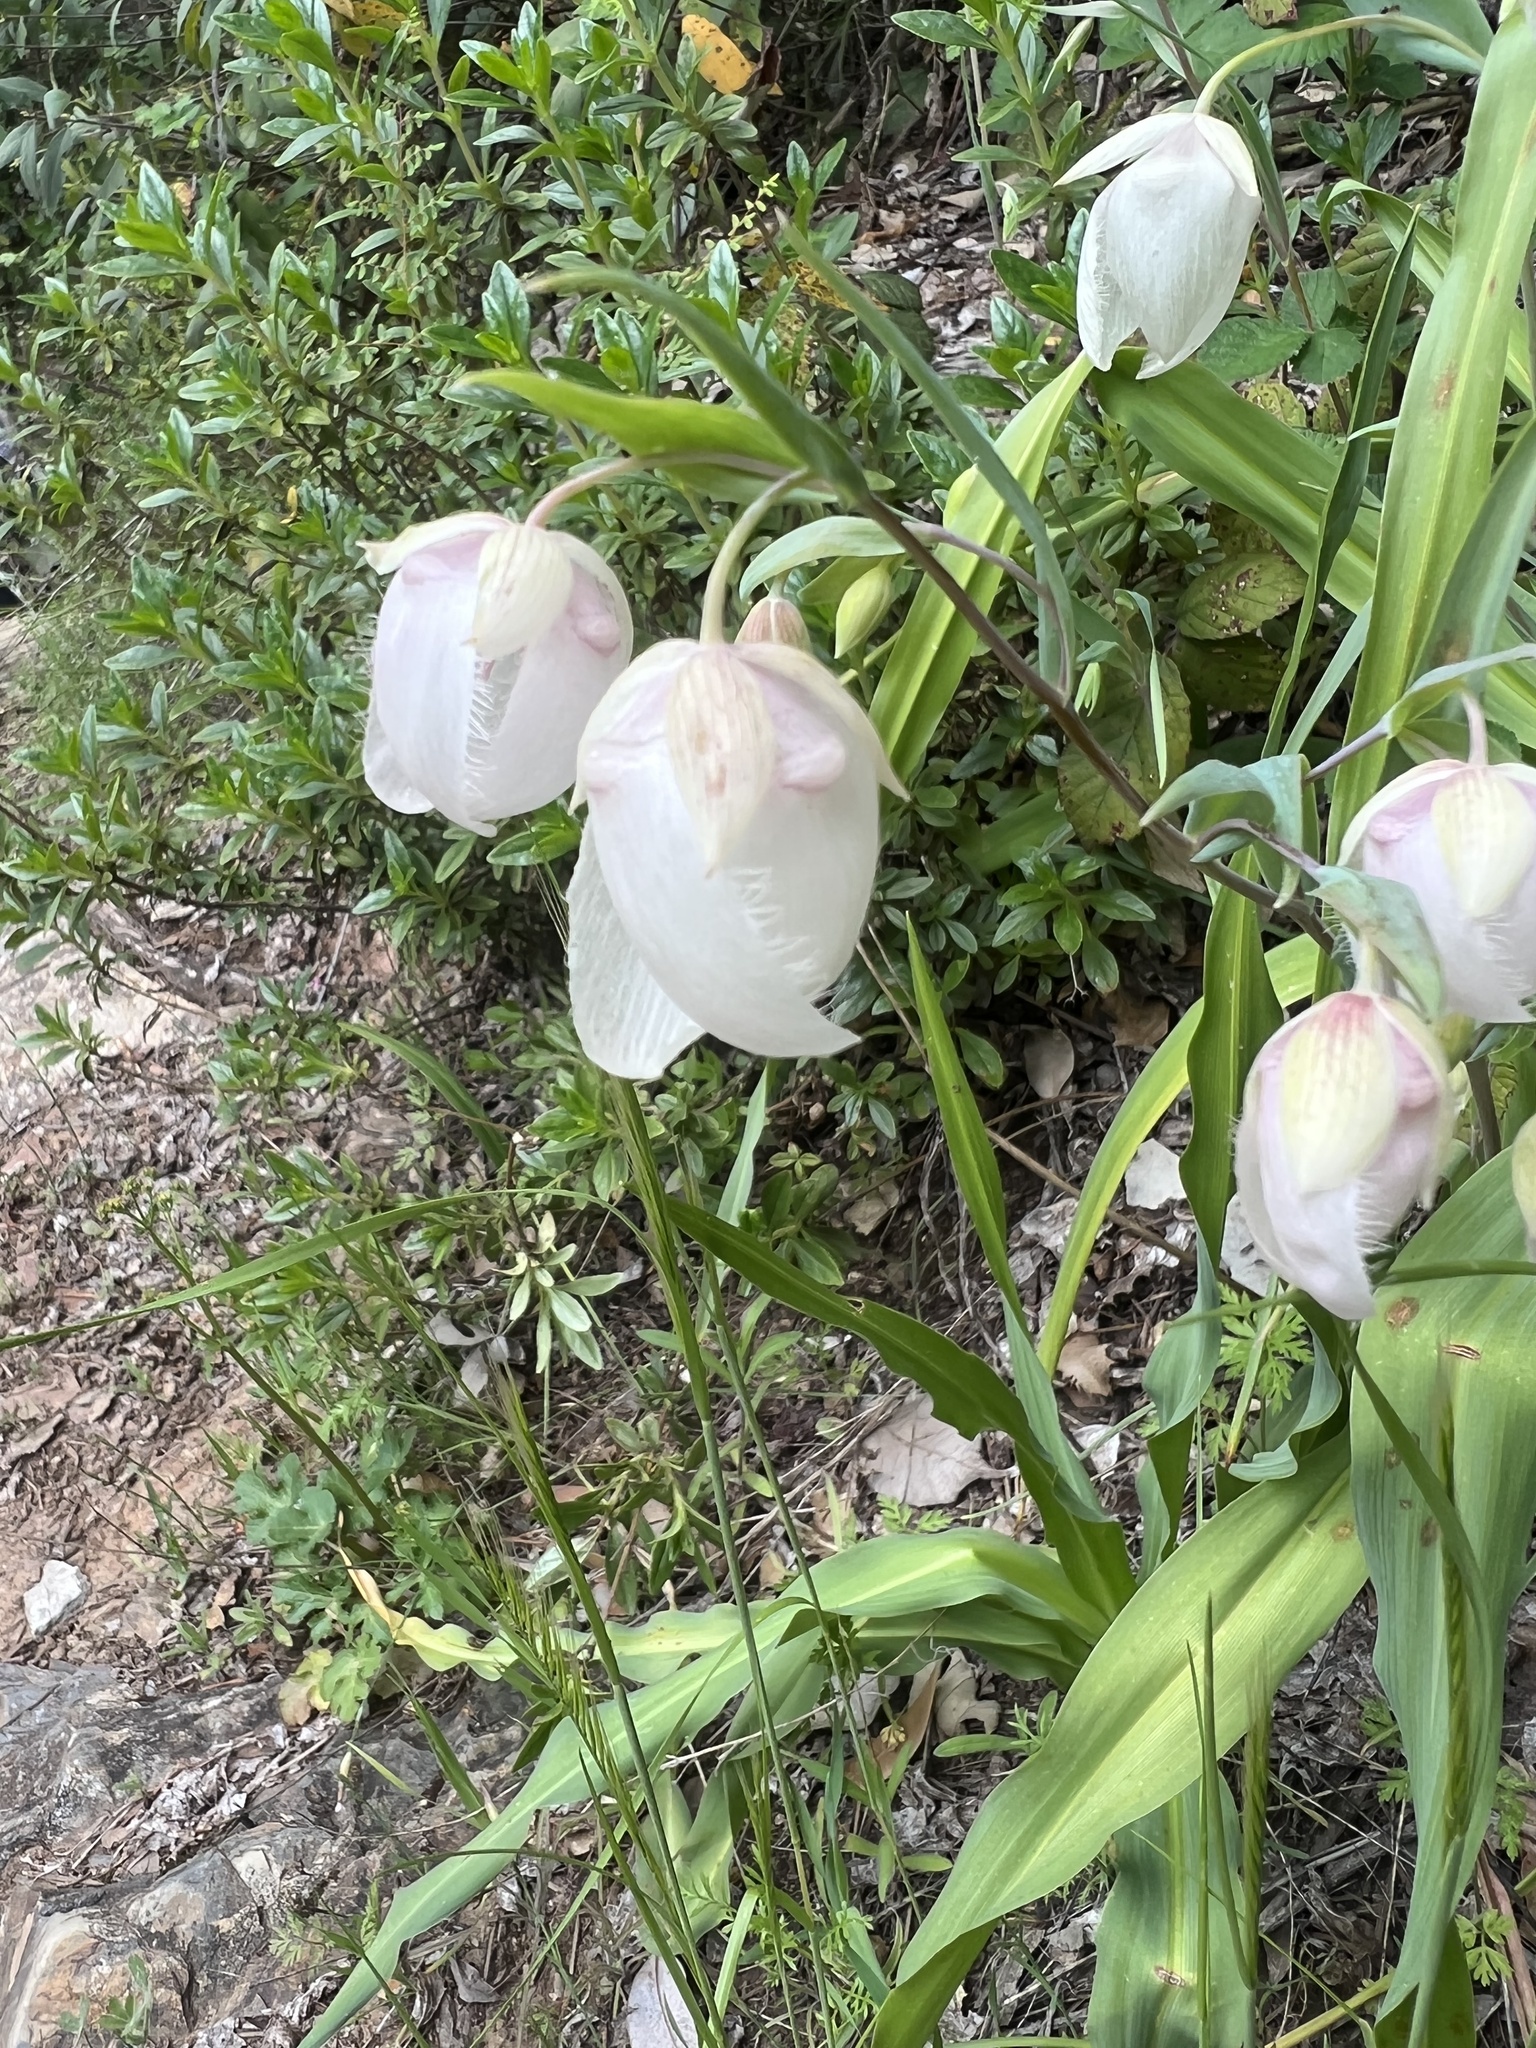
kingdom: Plantae
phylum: Tracheophyta
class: Liliopsida
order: Liliales
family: Liliaceae
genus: Calochortus
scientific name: Calochortus albus
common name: Fairy-lantern
